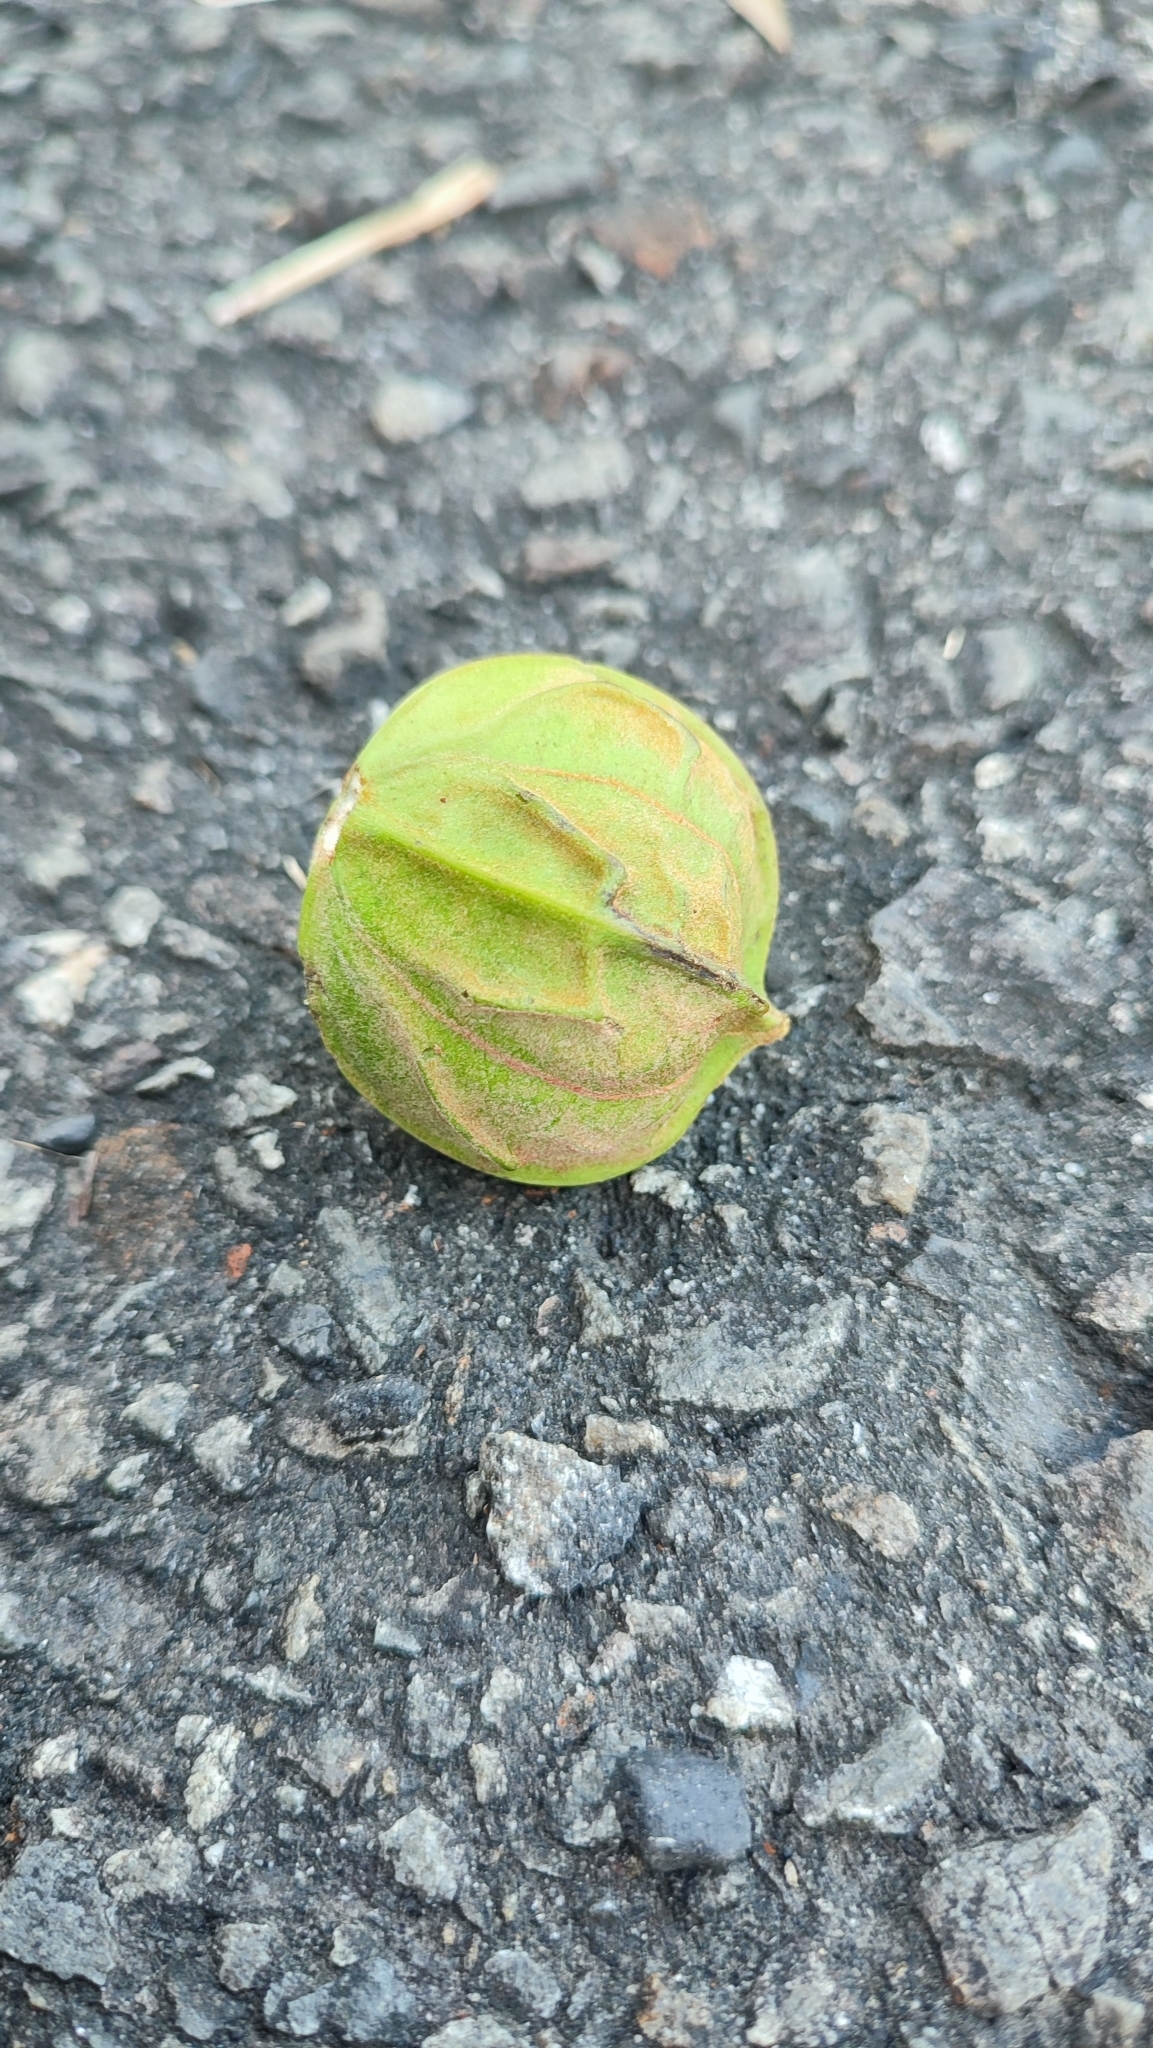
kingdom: Plantae
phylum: Tracheophyta
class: Magnoliopsida
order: Malpighiales
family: Euphorbiaceae
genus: Vernicia
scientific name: Vernicia montana
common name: Mu oil tree
